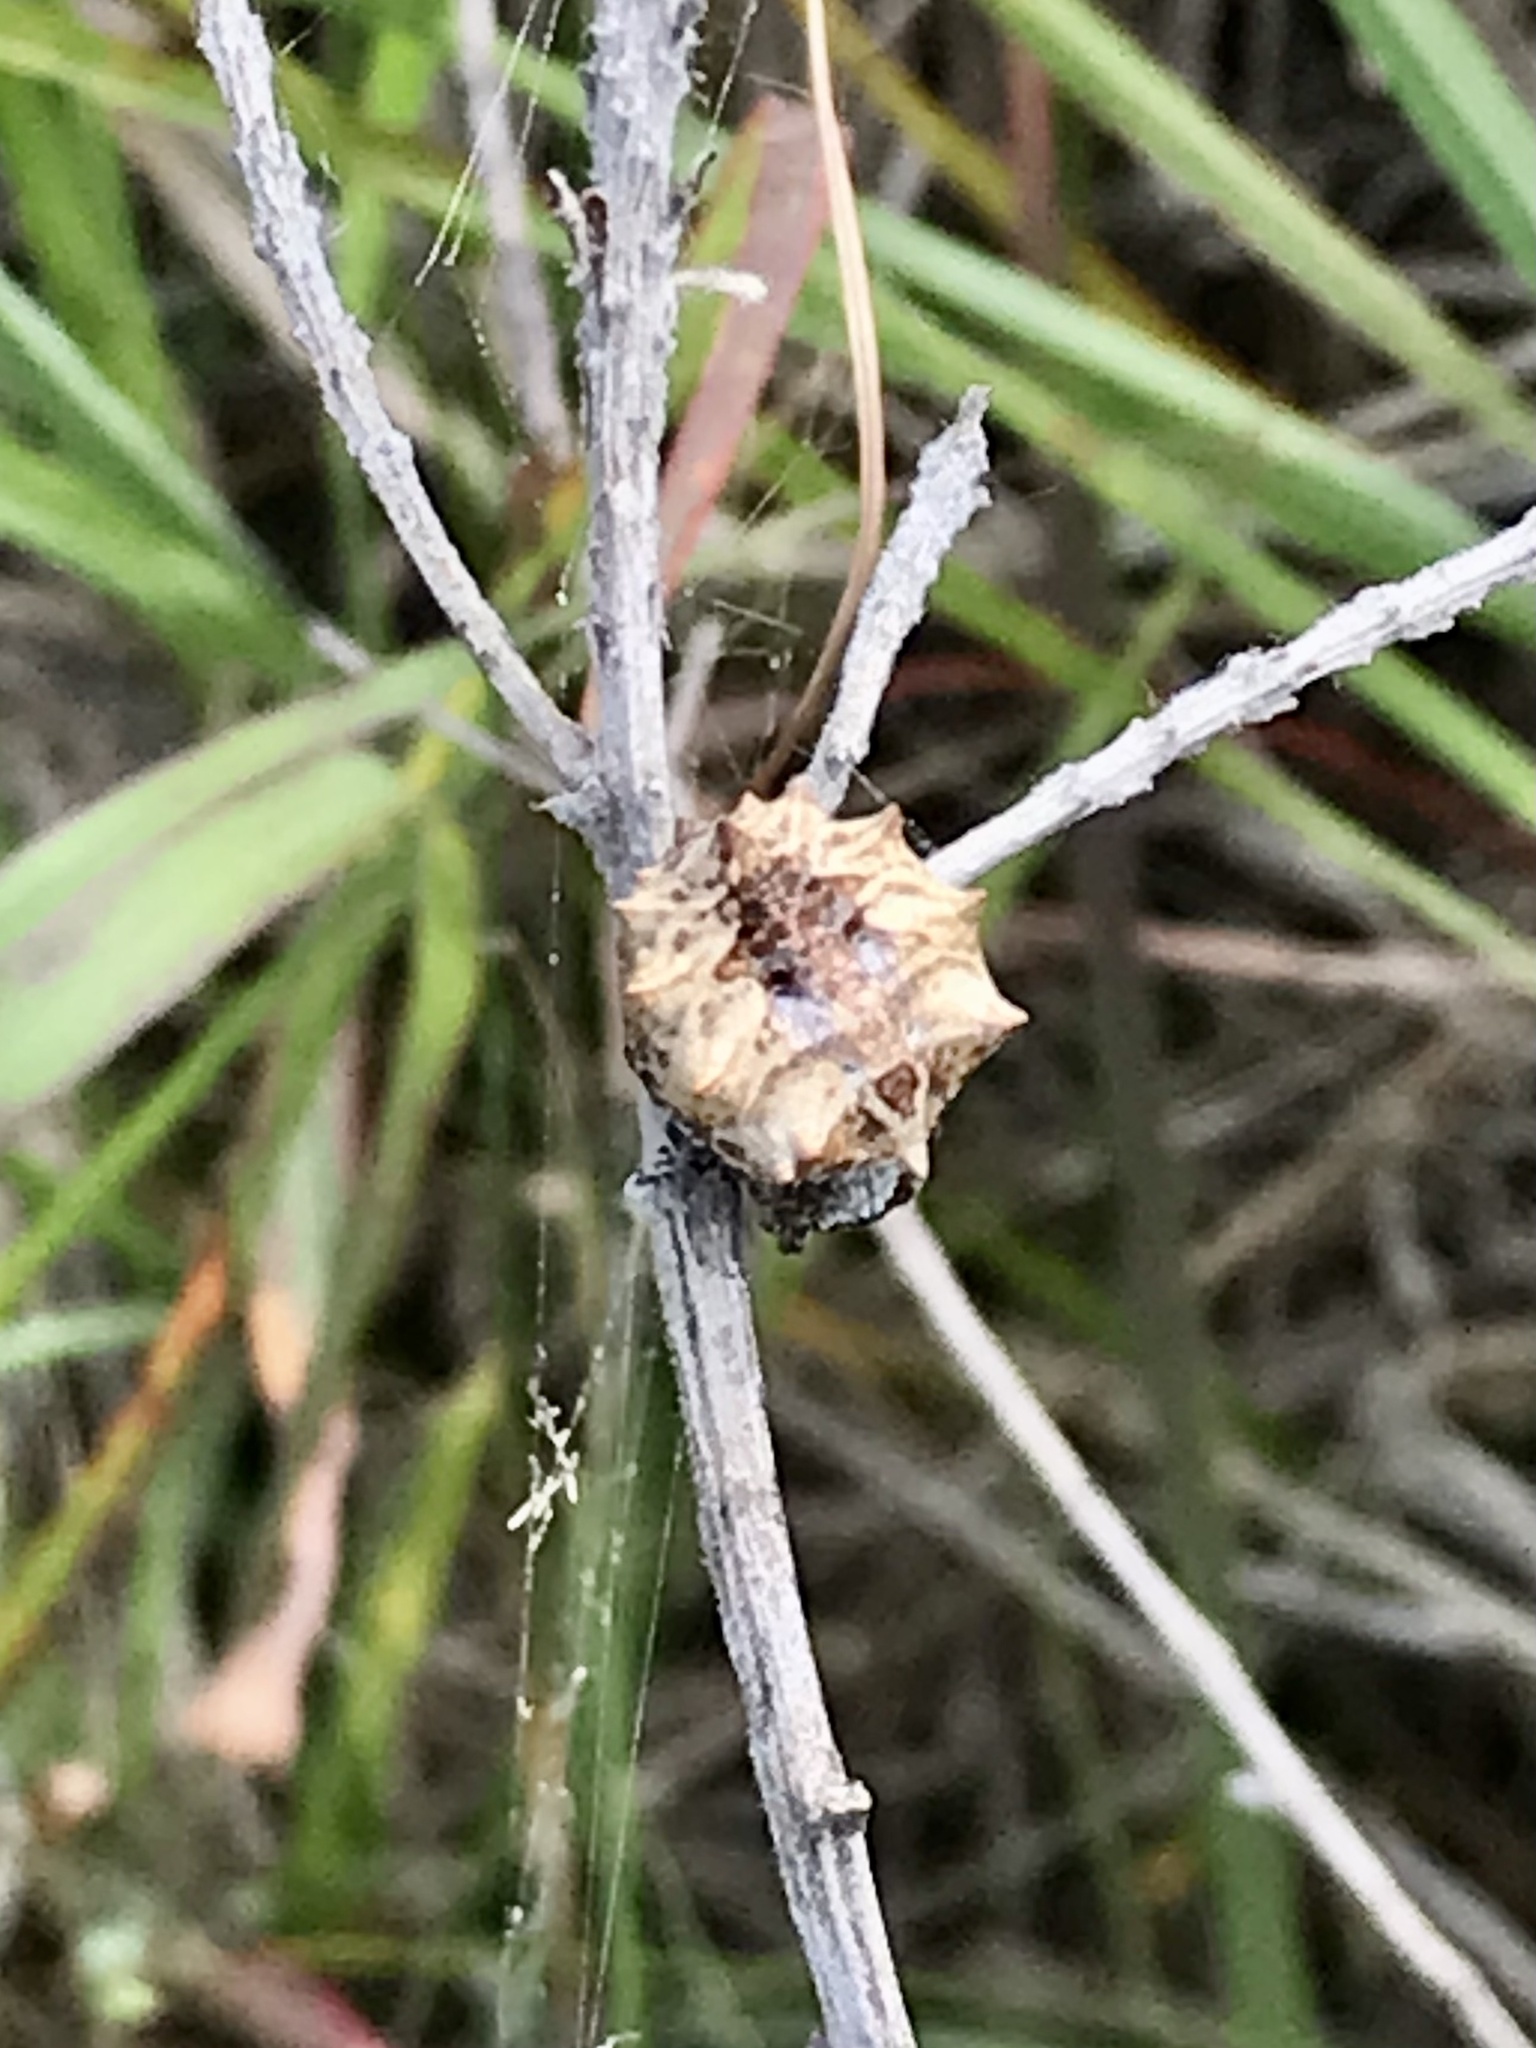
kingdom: Animalia
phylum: Arthropoda
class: Arachnida
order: Araneae
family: Araneidae
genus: Acanthepeira
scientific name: Acanthepeira stellata
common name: Starbellied orbweaver
